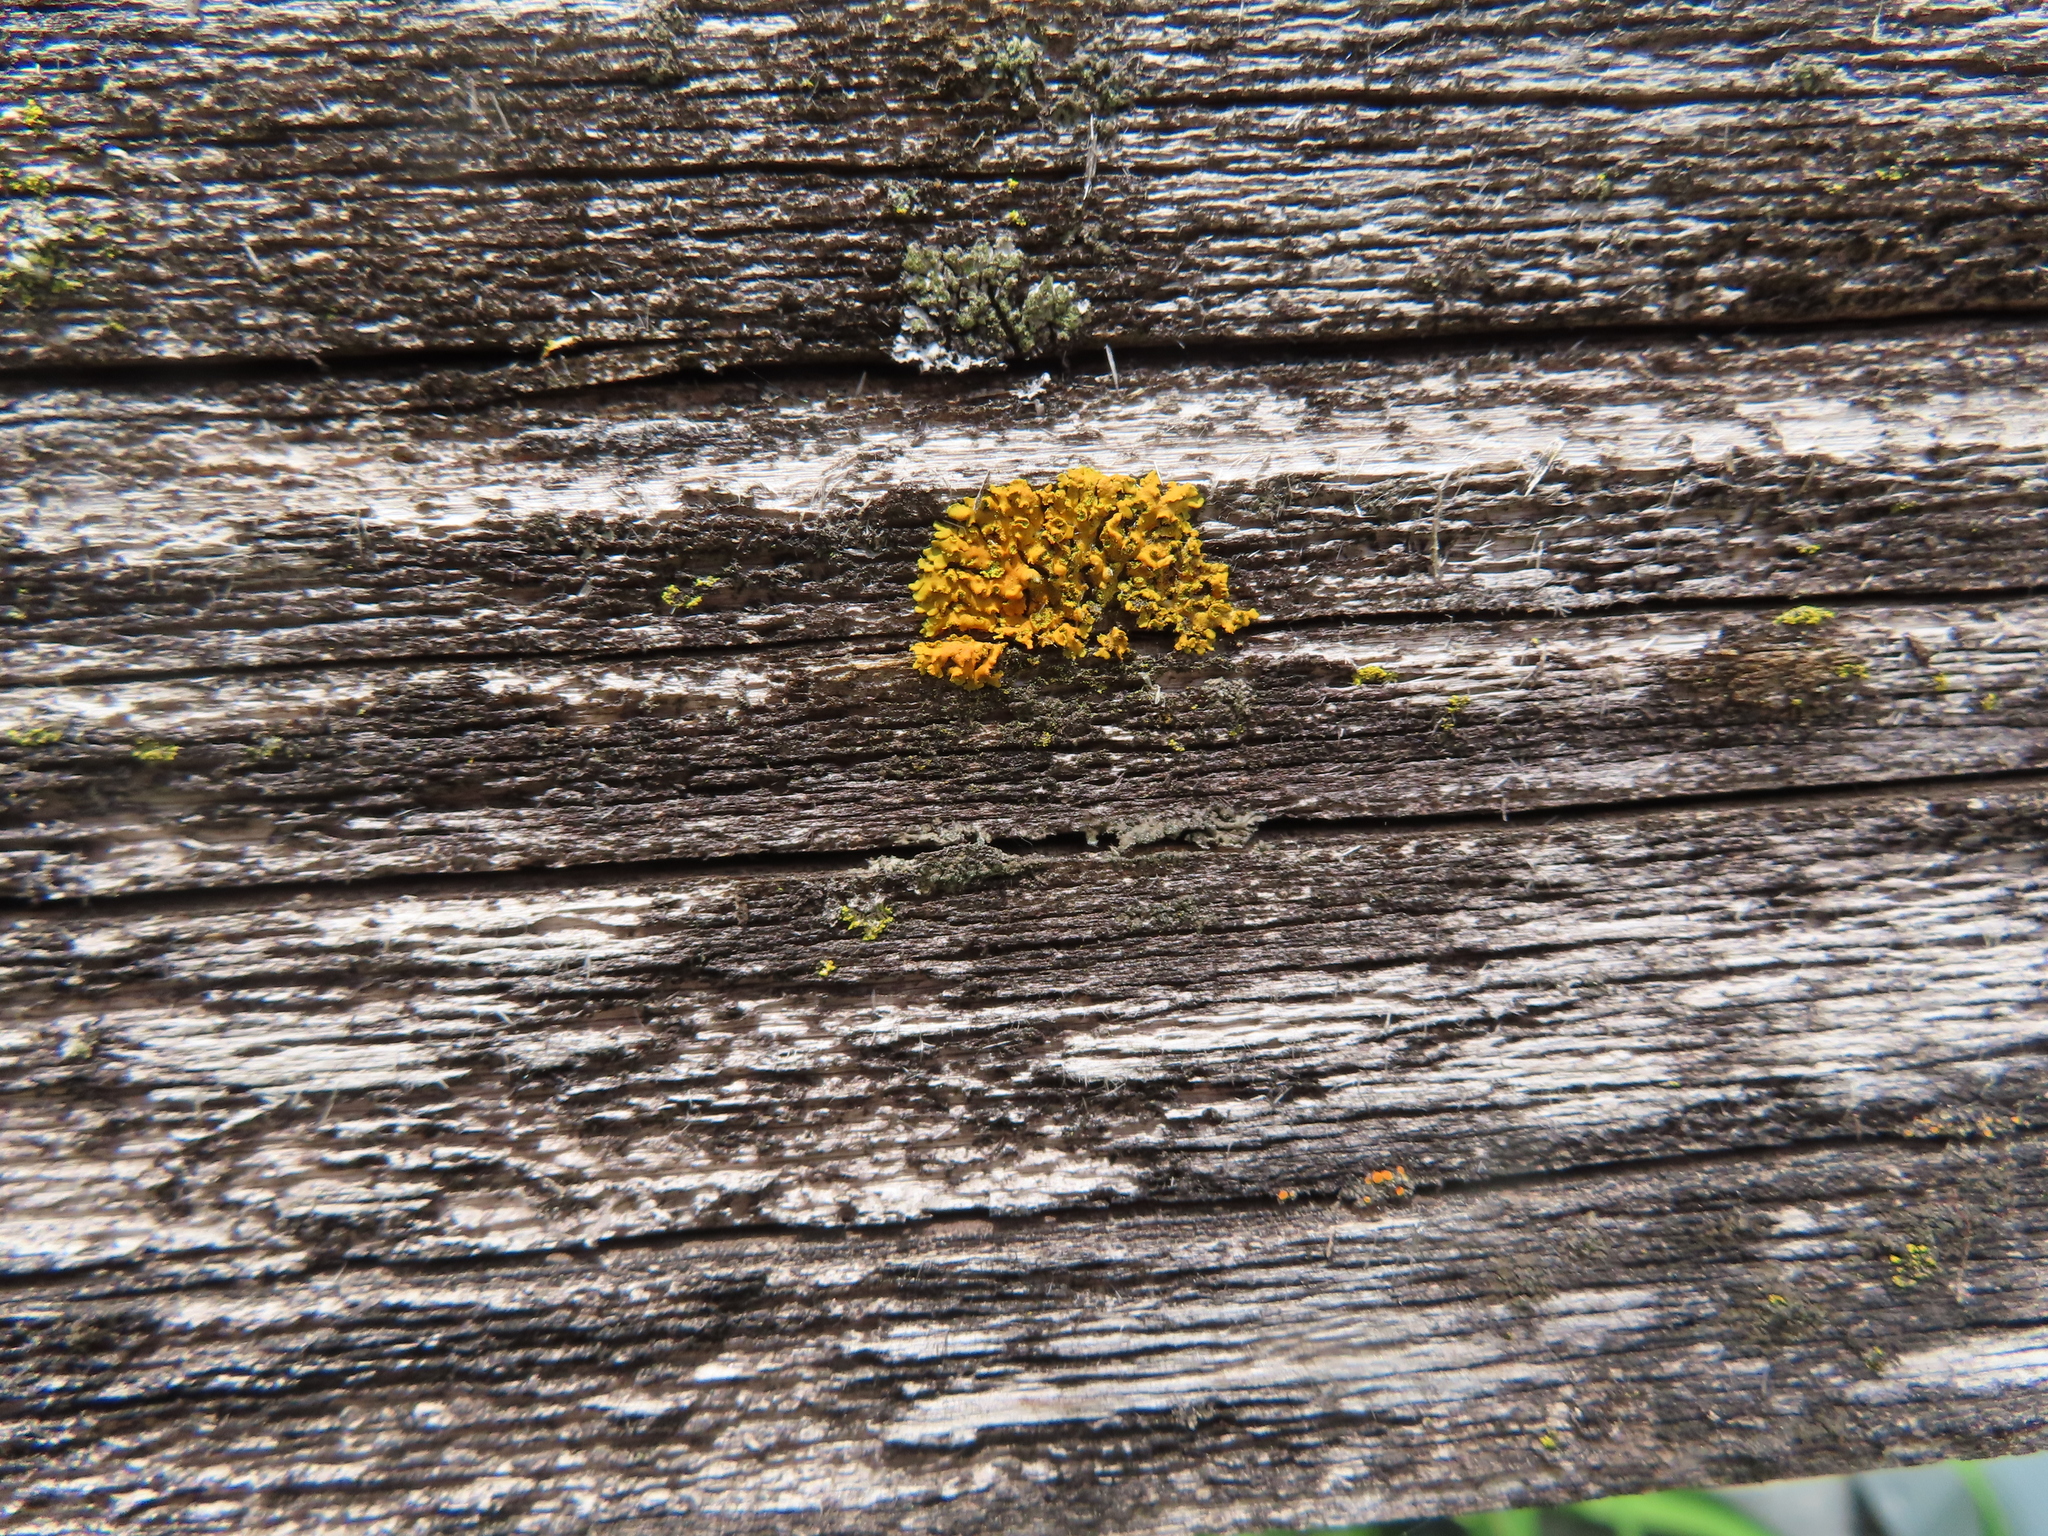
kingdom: Fungi
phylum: Ascomycota
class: Lecanoromycetes
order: Teloschistales
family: Teloschistaceae
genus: Oxneria
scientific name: Oxneria fallax
